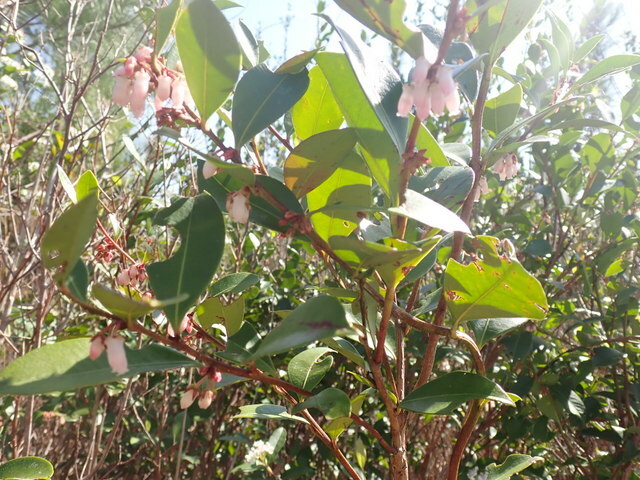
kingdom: Plantae
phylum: Tracheophyta
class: Magnoliopsida
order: Ericales
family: Ericaceae
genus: Lyonia
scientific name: Lyonia lucida
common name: Fetterbush
